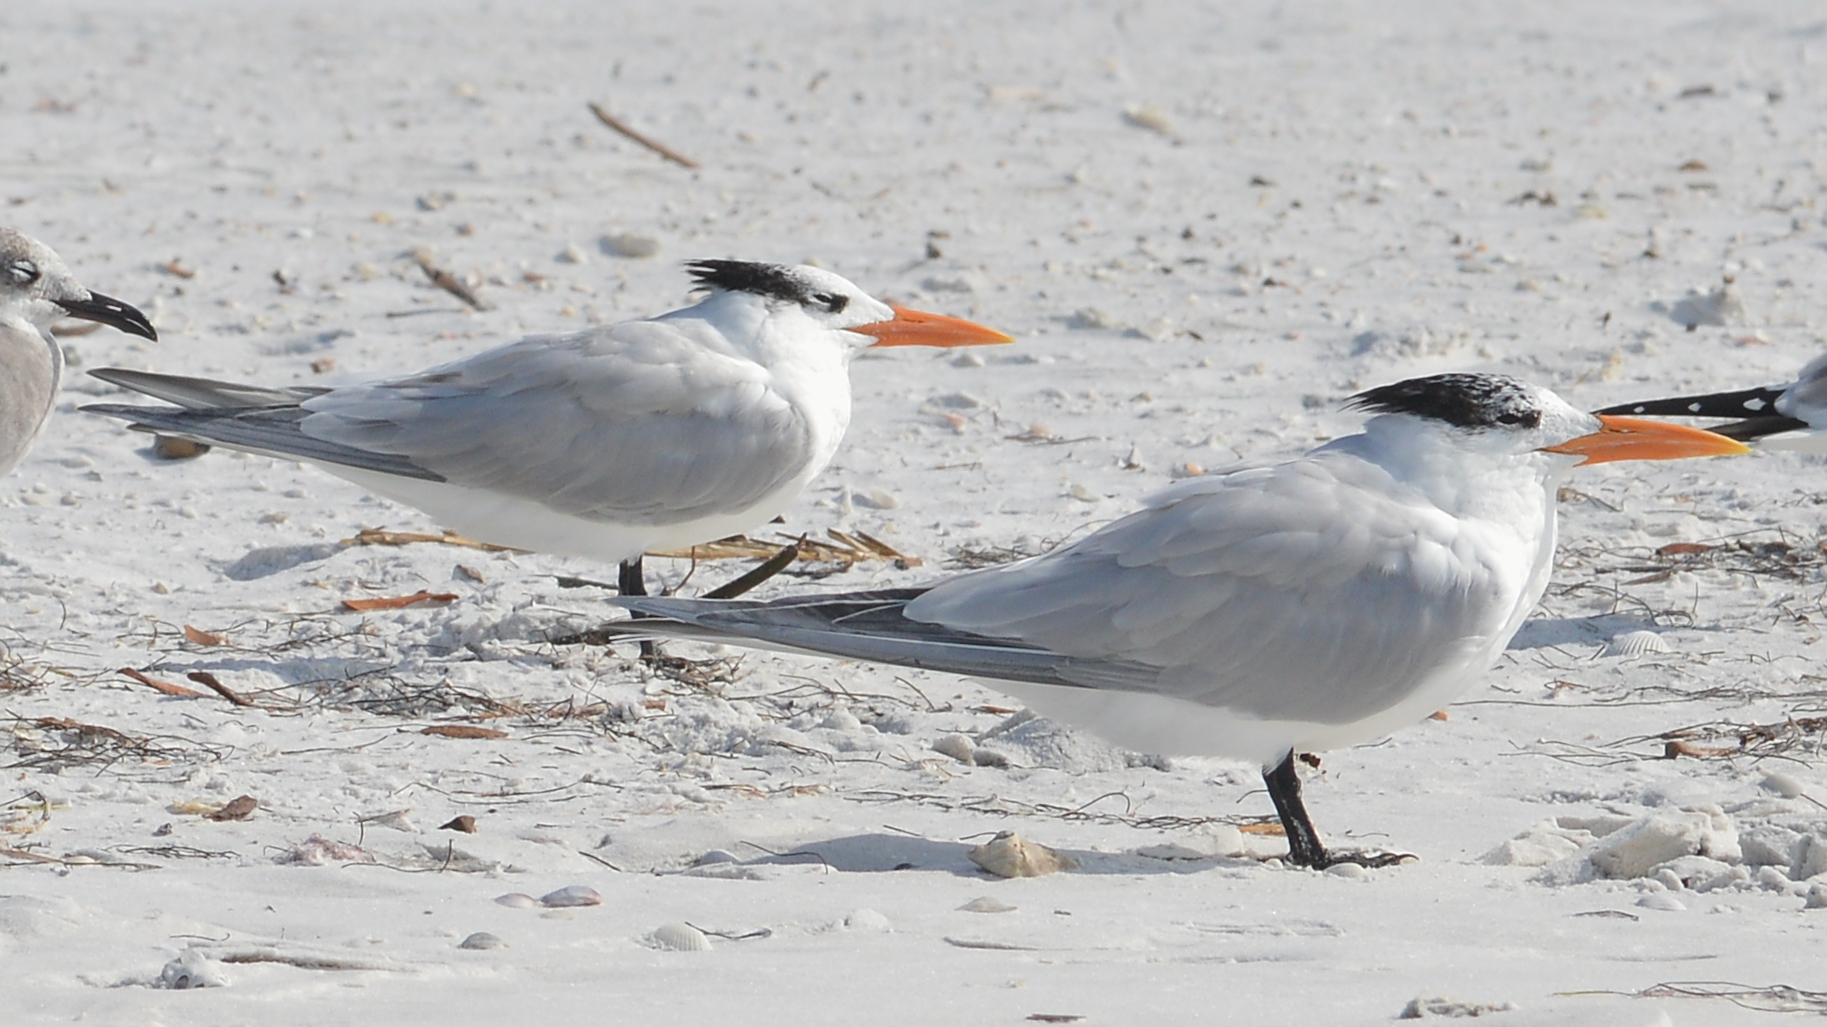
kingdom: Animalia
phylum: Chordata
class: Aves
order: Charadriiformes
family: Laridae
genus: Thalasseus
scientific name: Thalasseus maximus
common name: Royal tern
